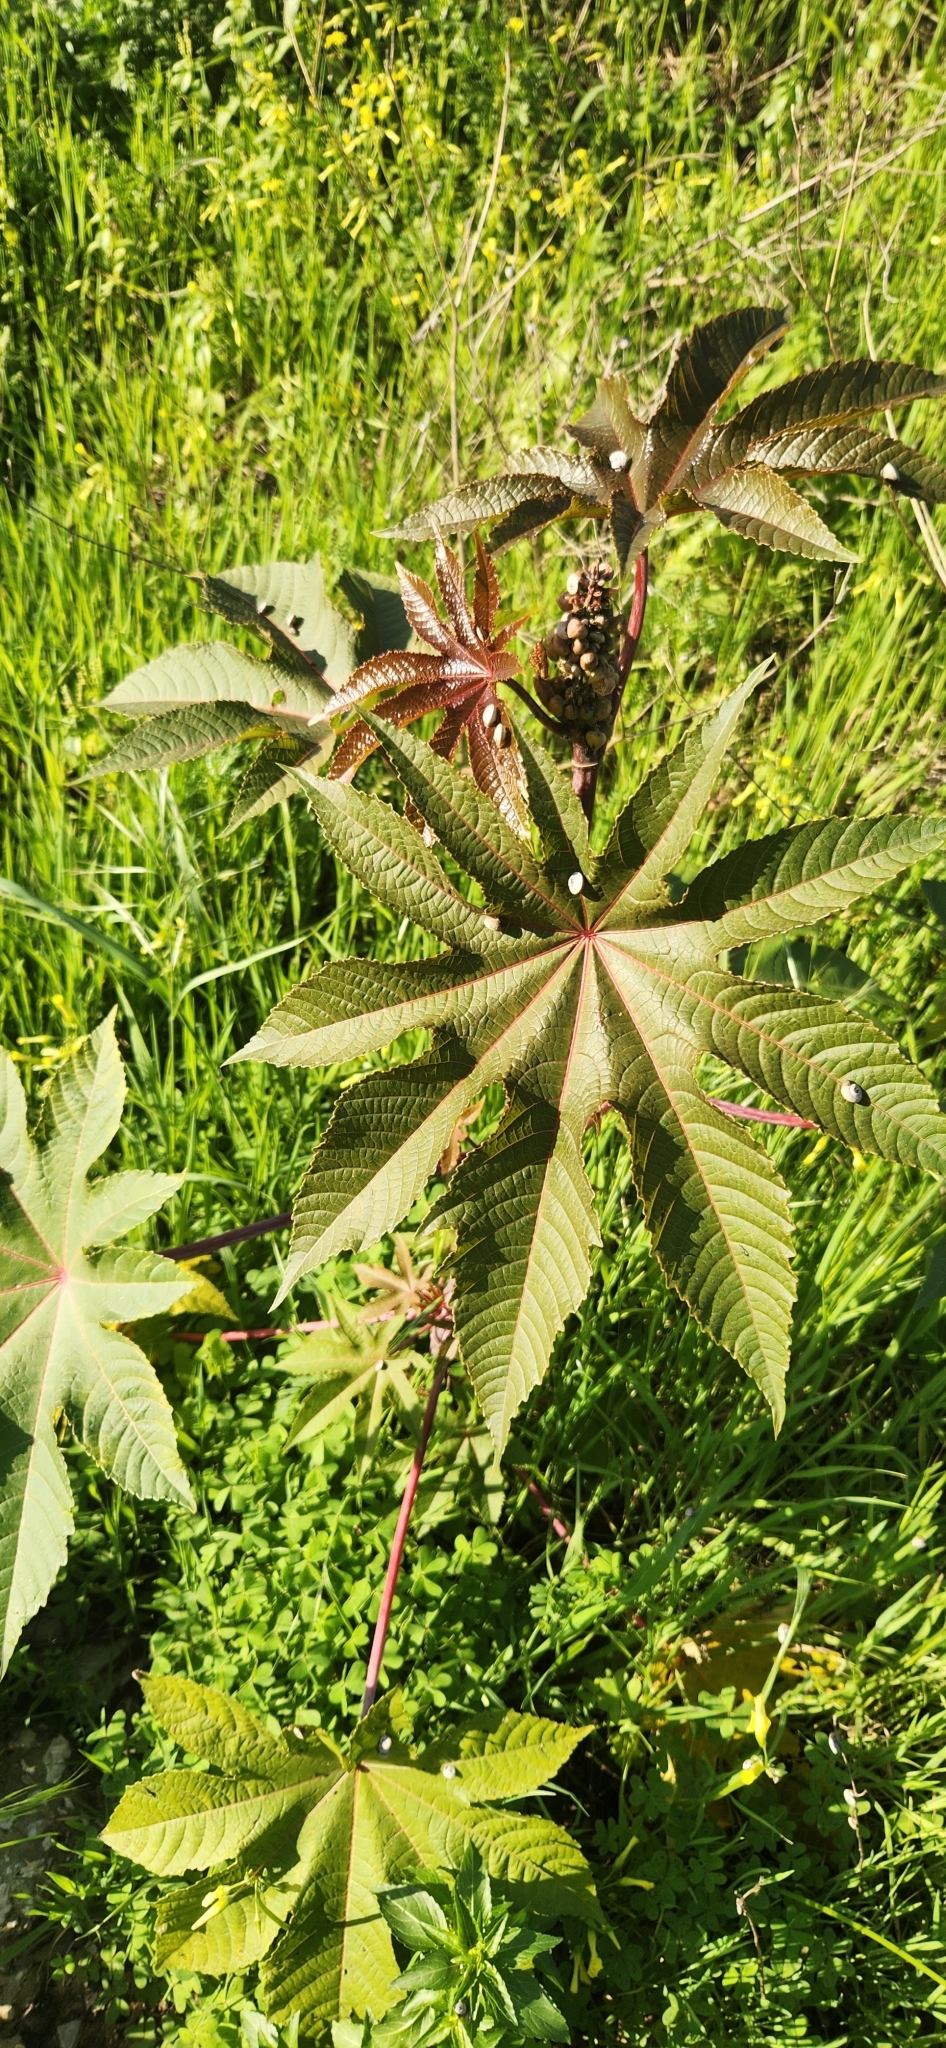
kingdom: Plantae
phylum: Tracheophyta
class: Magnoliopsida
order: Malpighiales
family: Euphorbiaceae
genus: Ricinus
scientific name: Ricinus communis
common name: Castor-oil-plant
